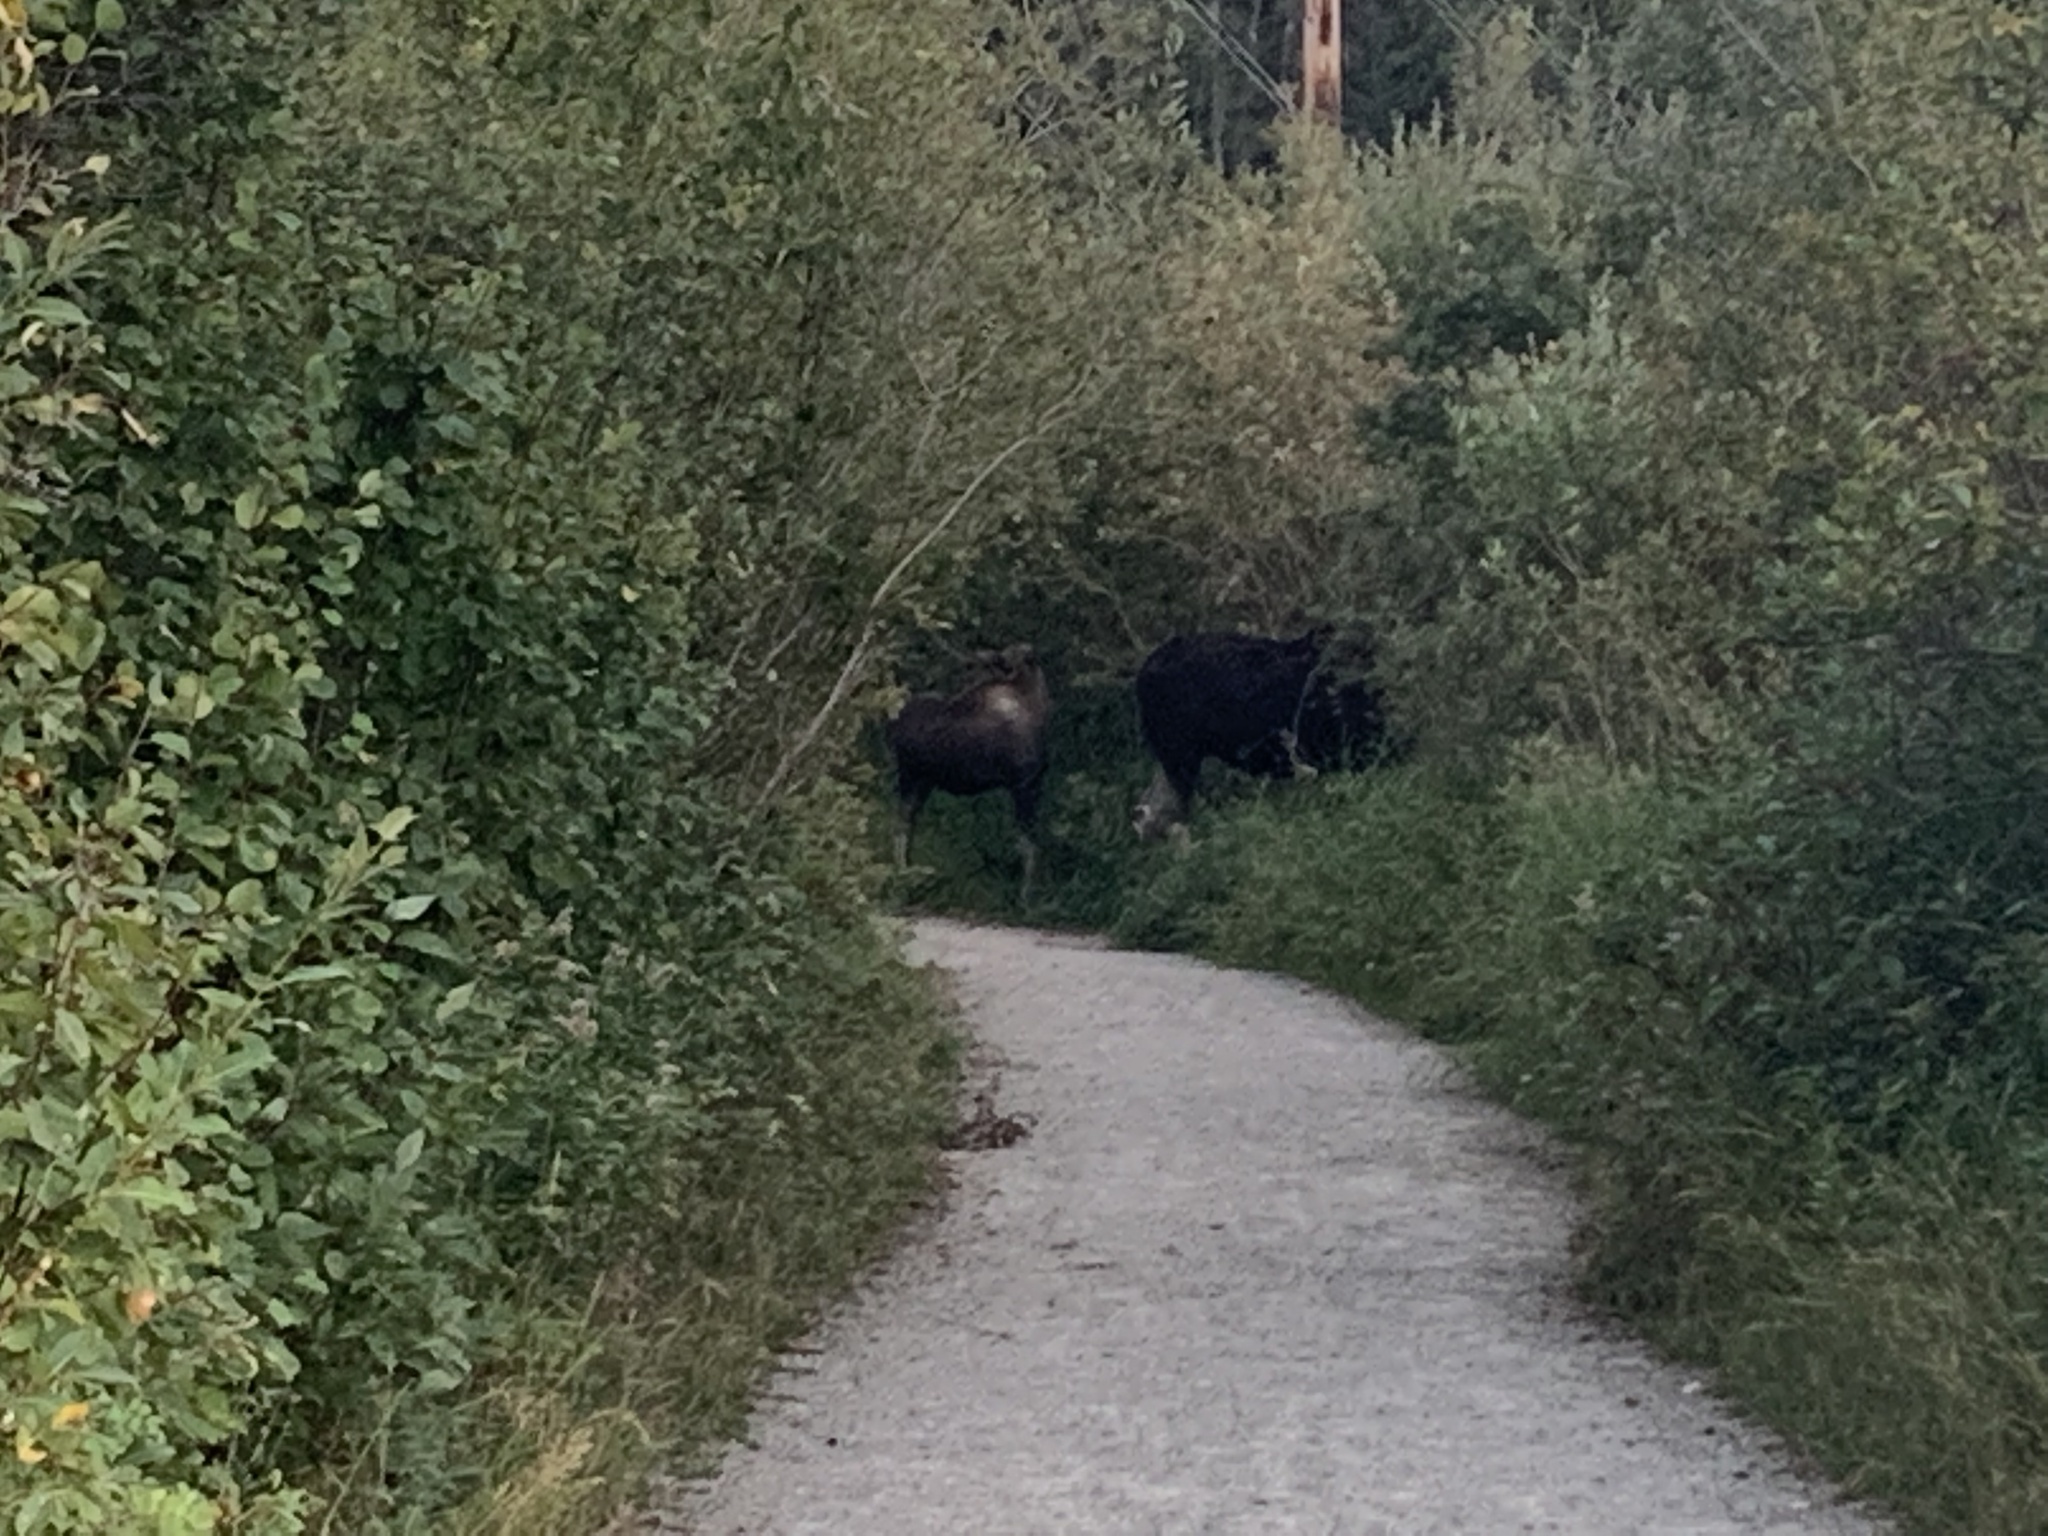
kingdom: Animalia
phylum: Chordata
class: Mammalia
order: Artiodactyla
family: Cervidae
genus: Alces
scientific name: Alces alces
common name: Moose
